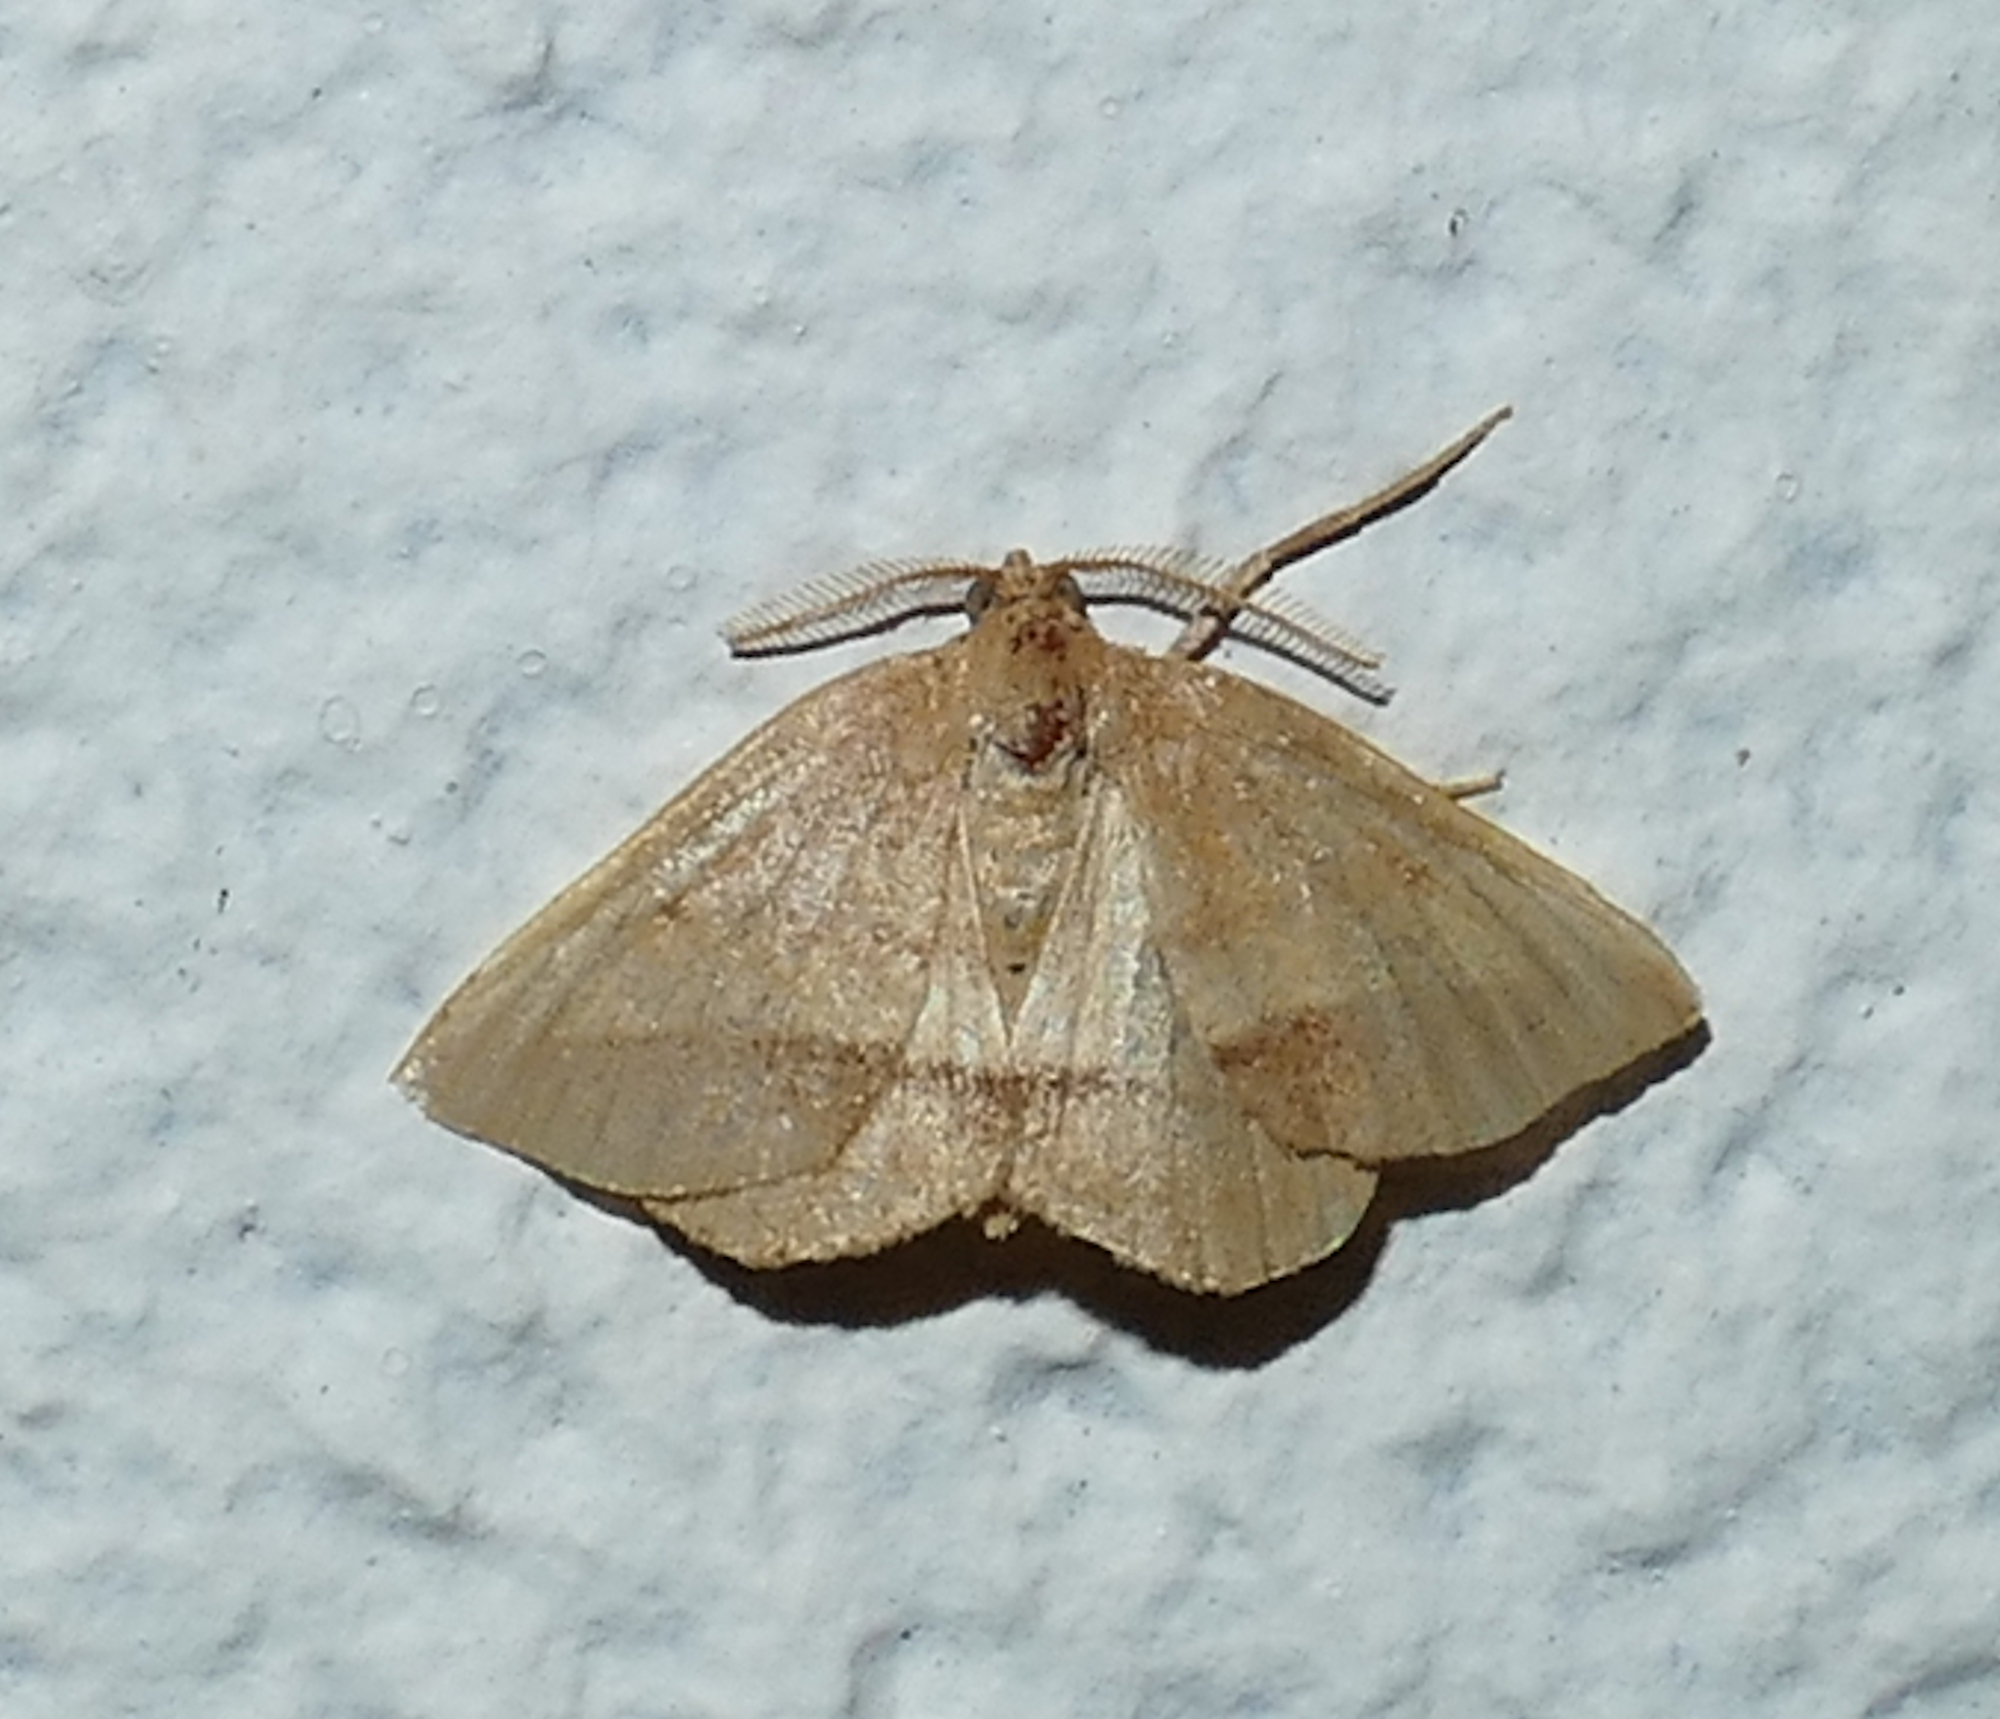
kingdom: Animalia
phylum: Arthropoda
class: Insecta
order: Lepidoptera
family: Geometridae
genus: Macaria
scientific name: Macaria varadaria
